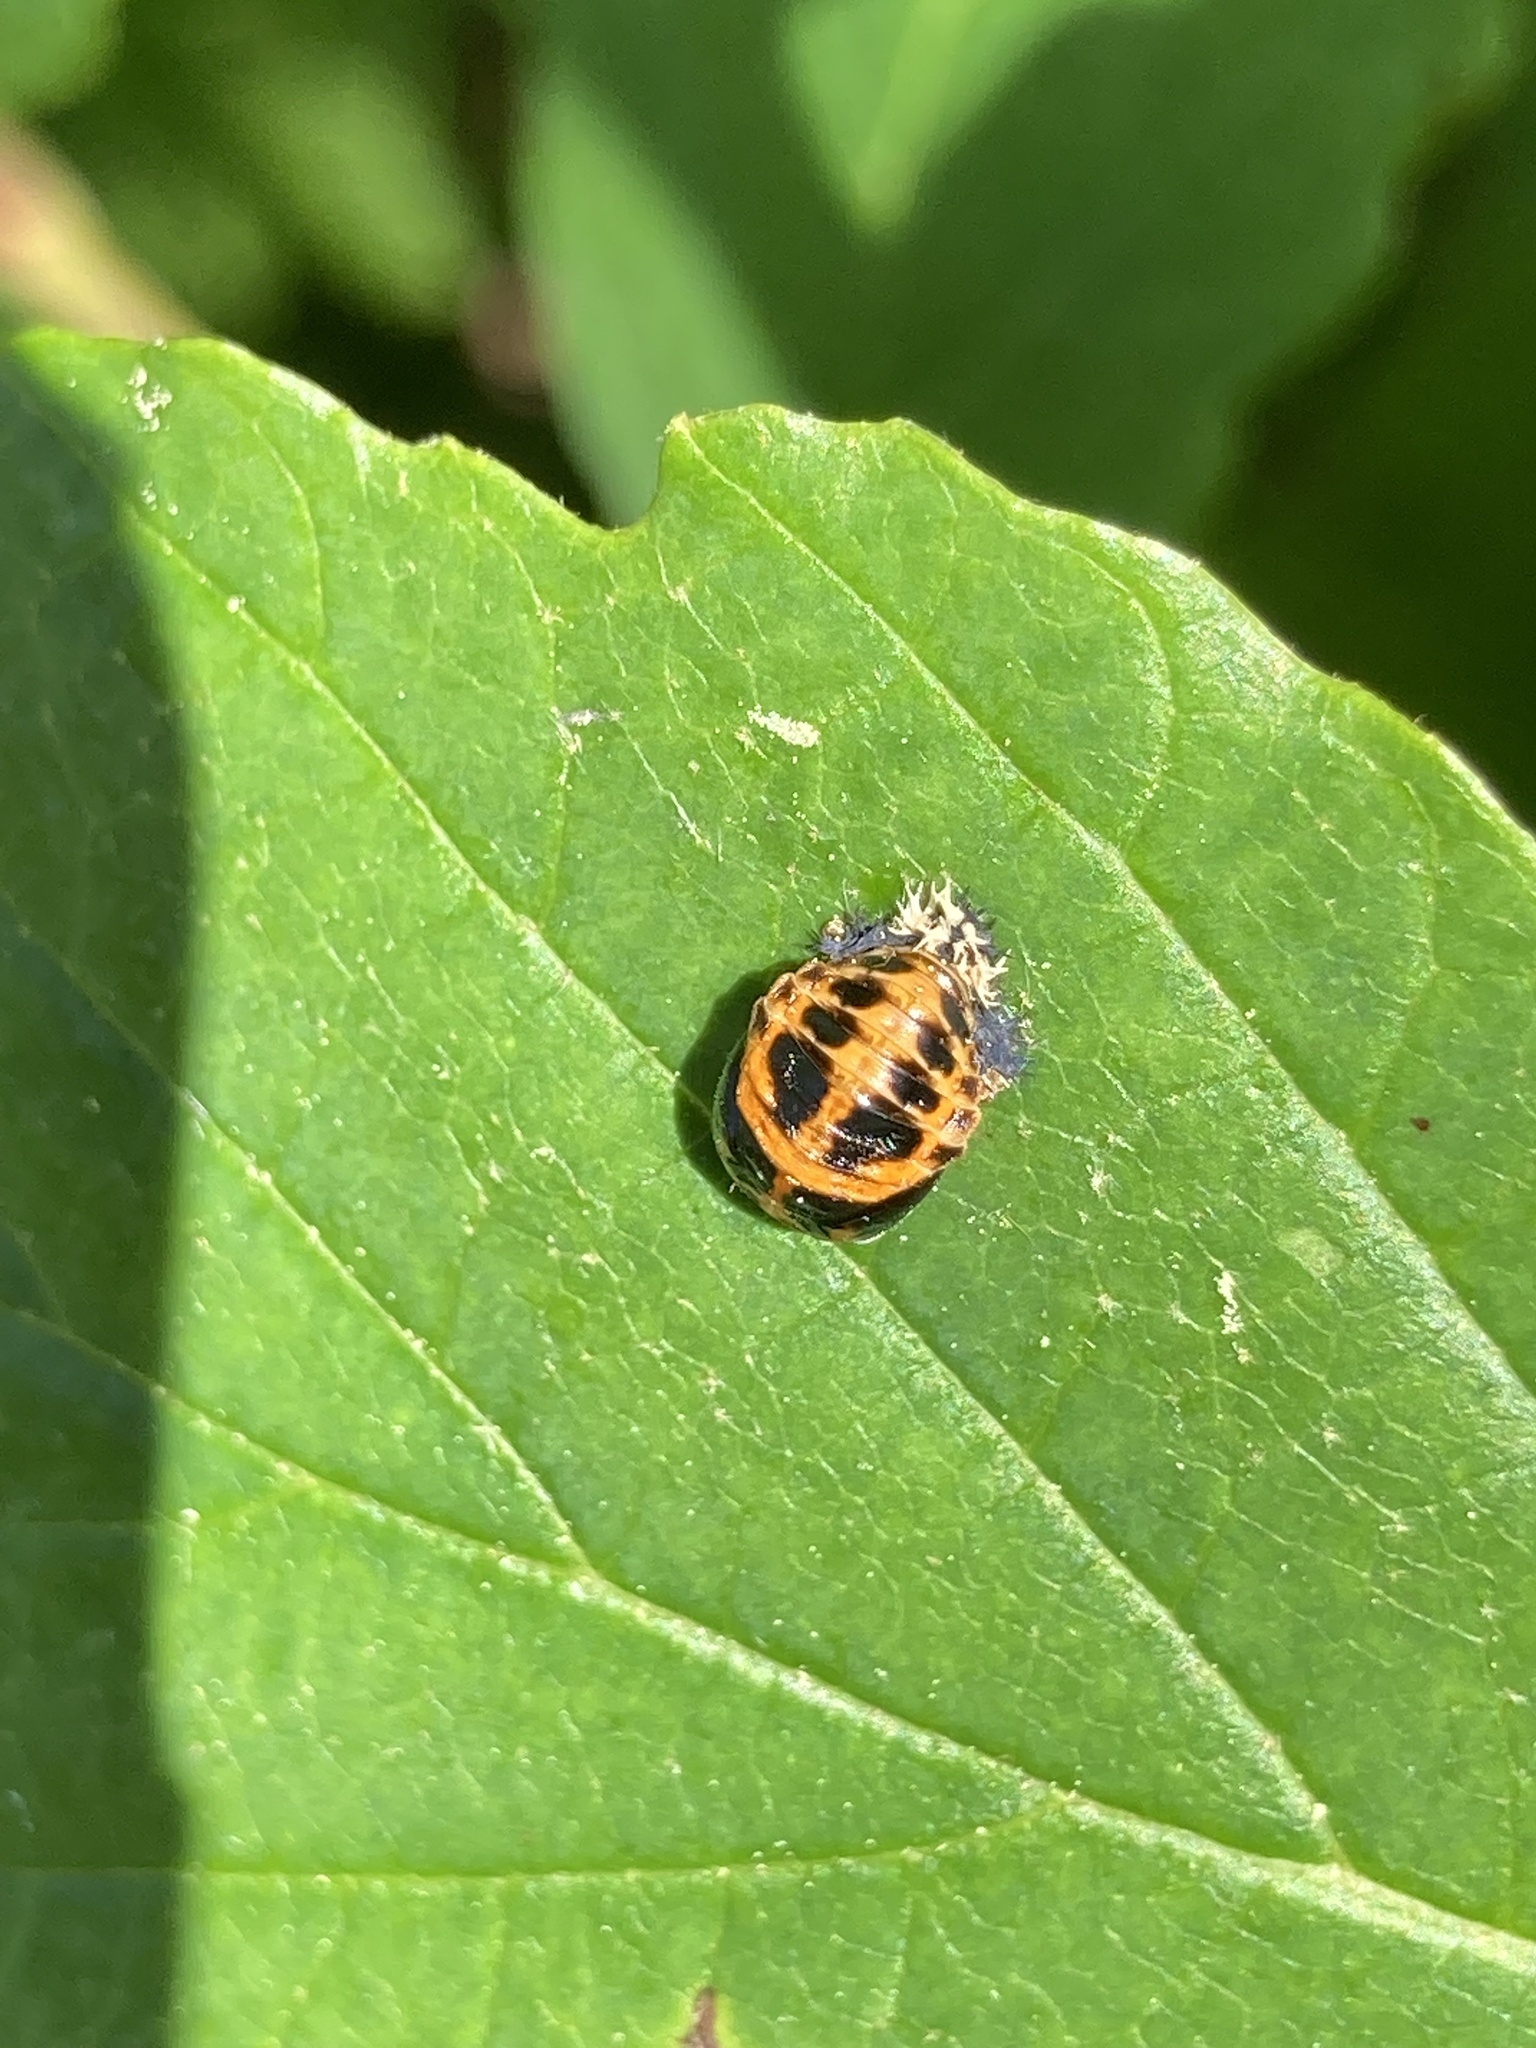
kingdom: Animalia
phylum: Arthropoda
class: Insecta
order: Coleoptera
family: Coccinellidae
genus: Harmonia
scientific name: Harmonia axyridis
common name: Harlequin ladybird
